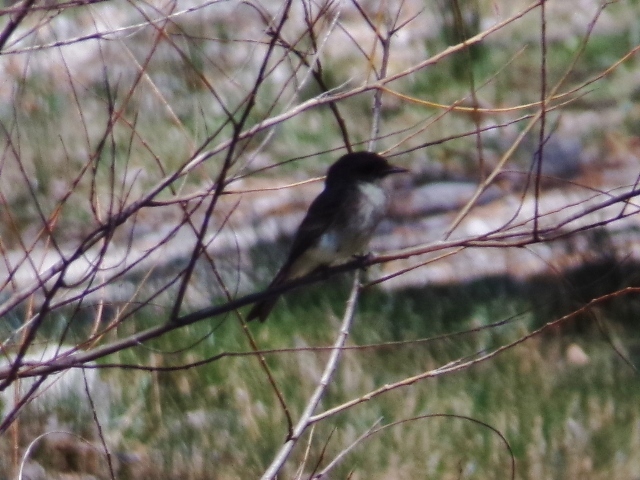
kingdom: Animalia
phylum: Chordata
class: Aves
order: Passeriformes
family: Tyrannidae
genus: Sayornis
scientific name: Sayornis phoebe
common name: Eastern phoebe
